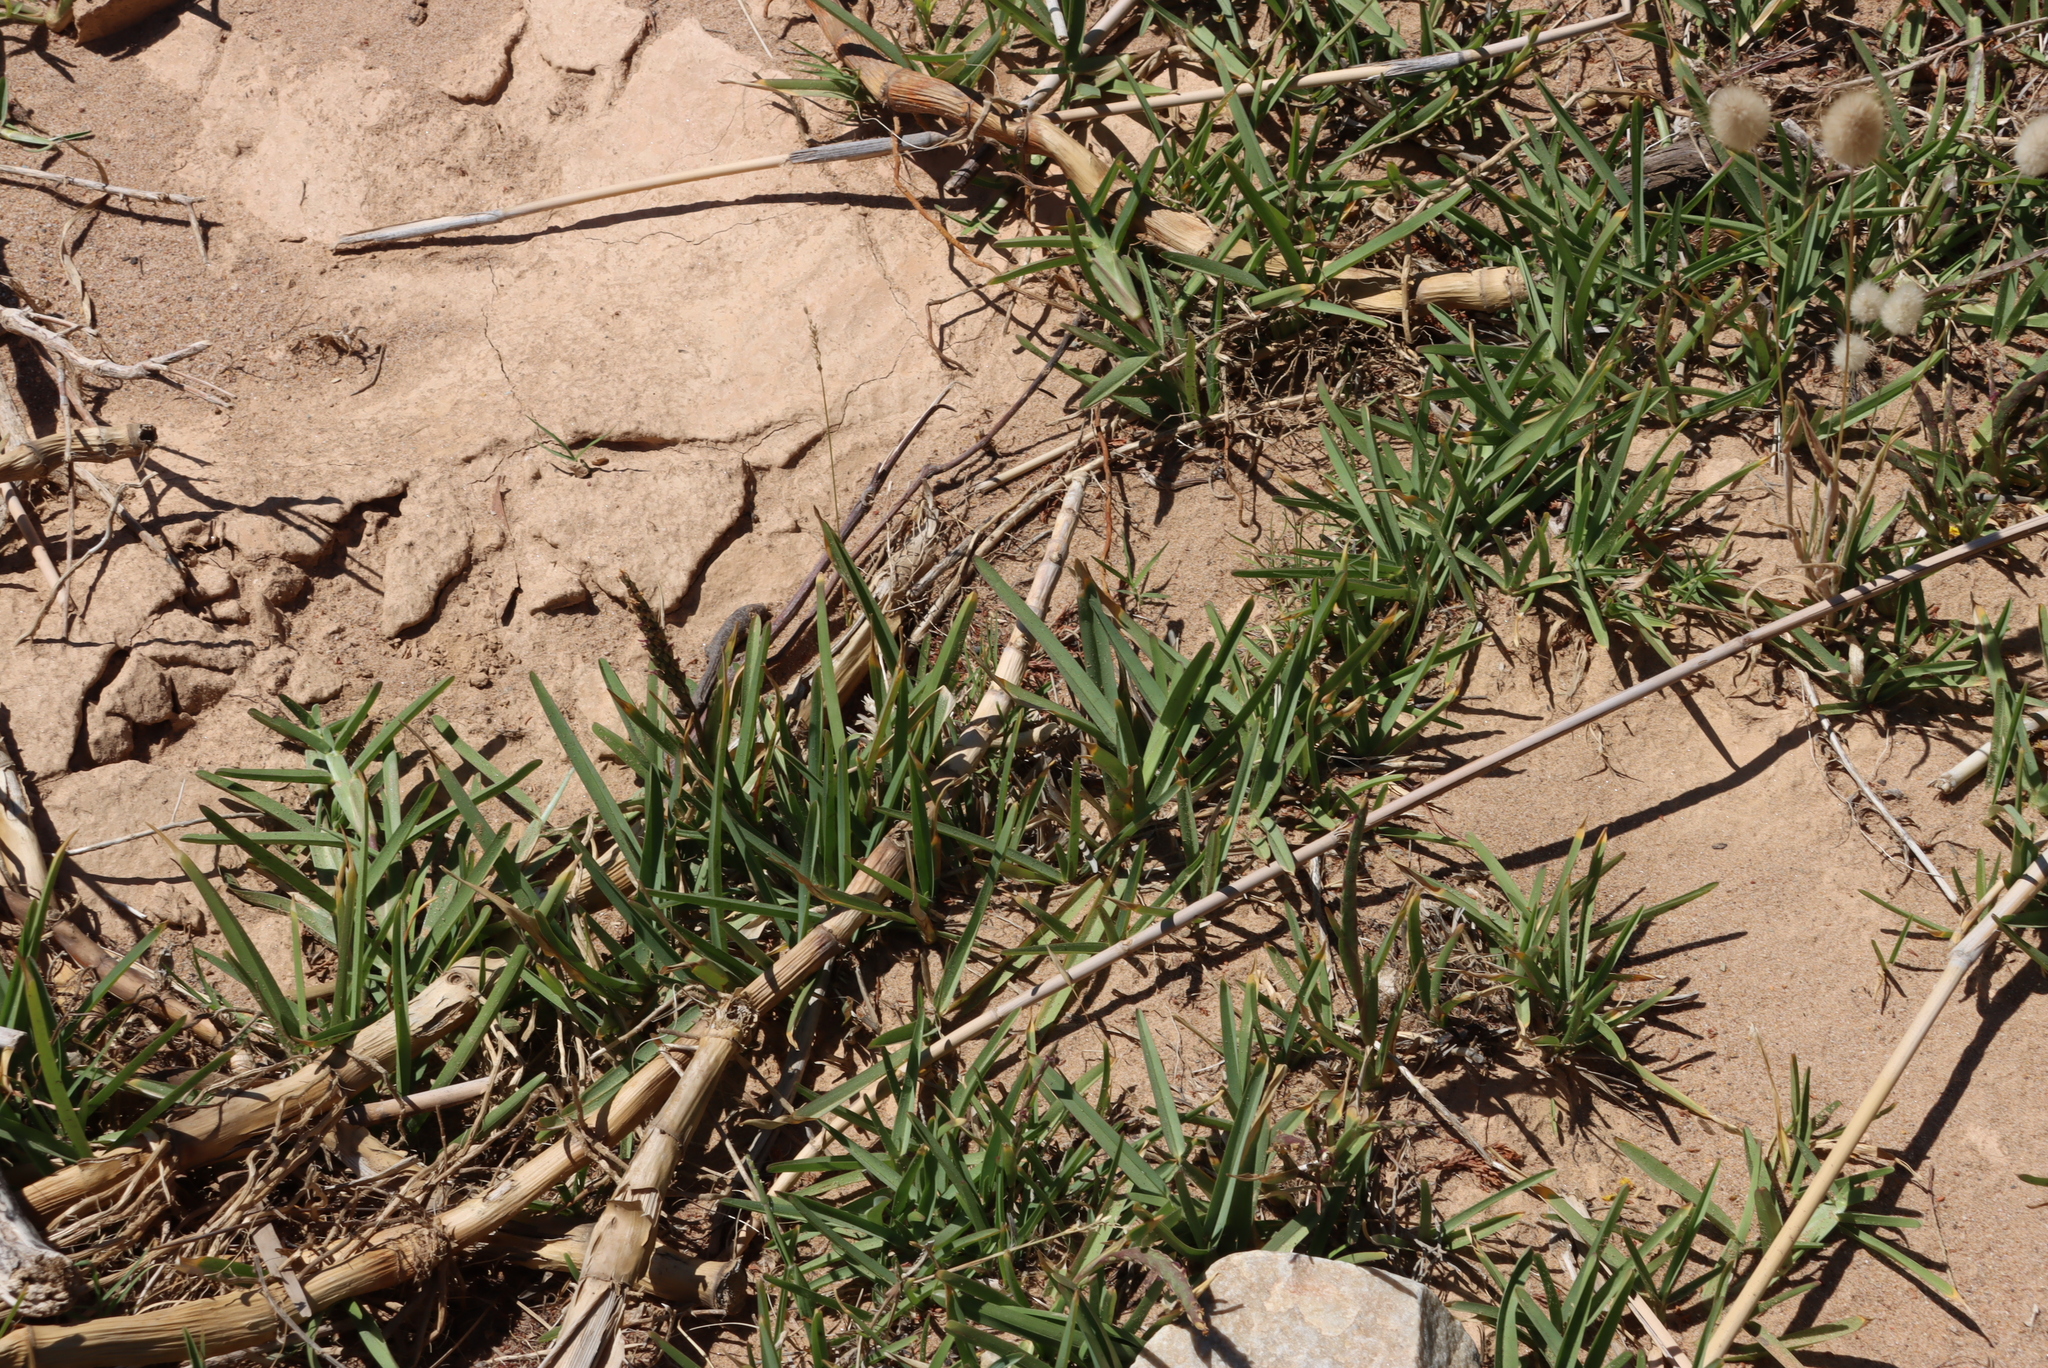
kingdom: Plantae
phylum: Tracheophyta
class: Liliopsida
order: Poales
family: Poaceae
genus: Stenotaphrum
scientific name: Stenotaphrum secundatum
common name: St. augustine grass
